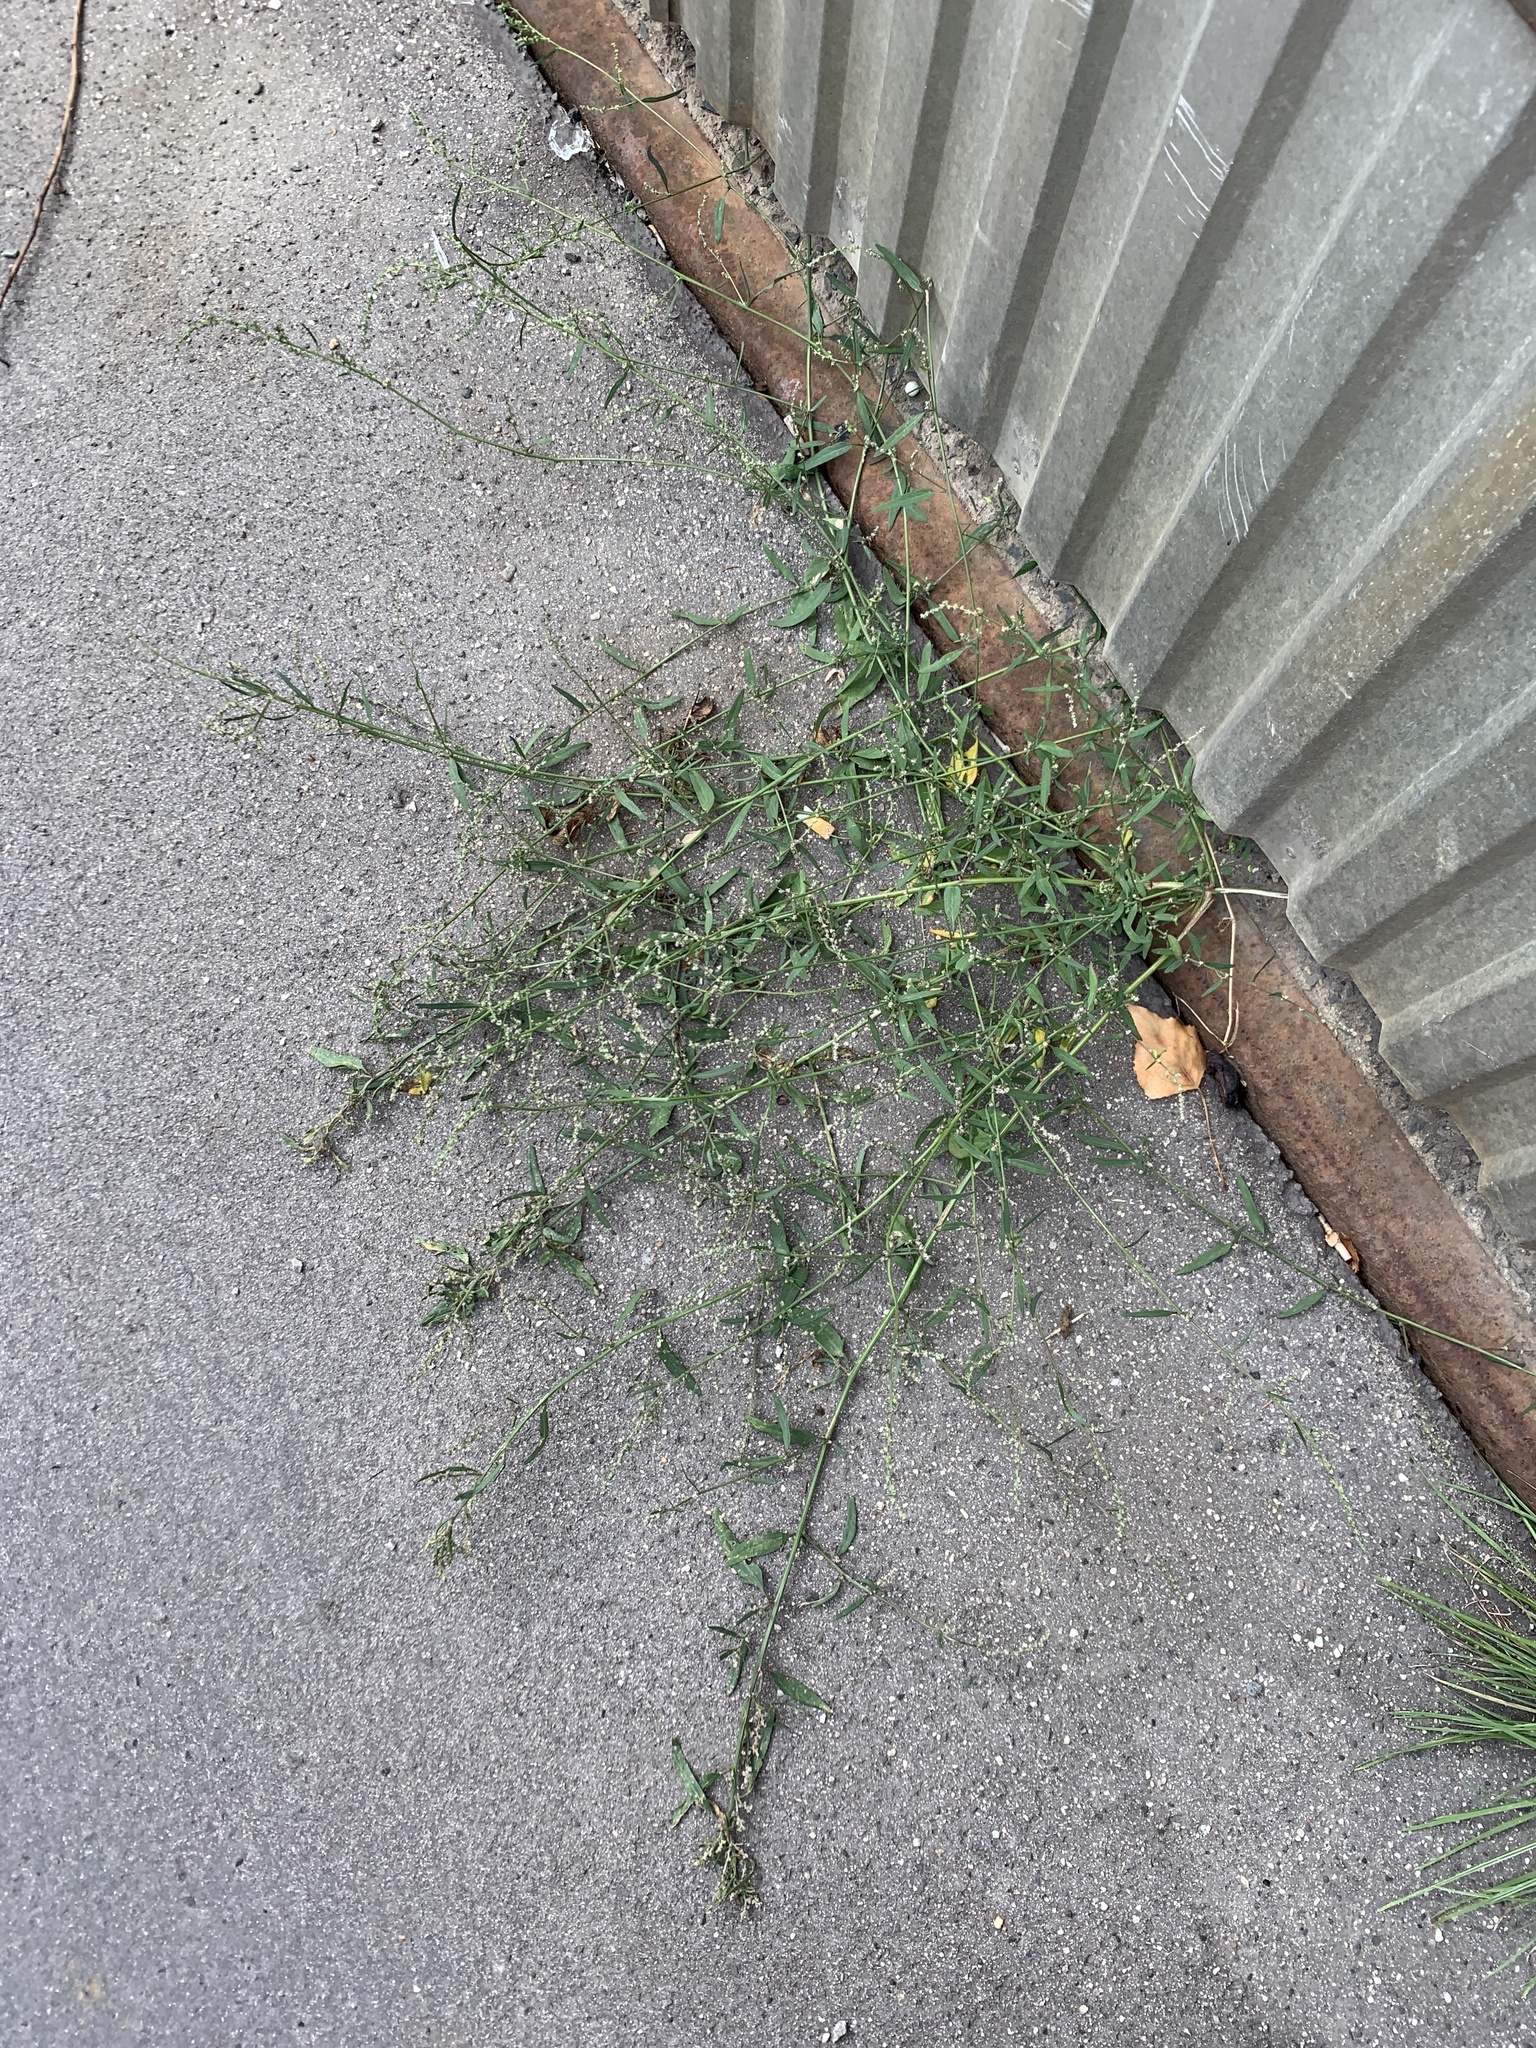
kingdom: Plantae
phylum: Tracheophyta
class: Magnoliopsida
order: Caryophyllales
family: Amaranthaceae
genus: Atriplex
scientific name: Atriplex patula
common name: Common orache
